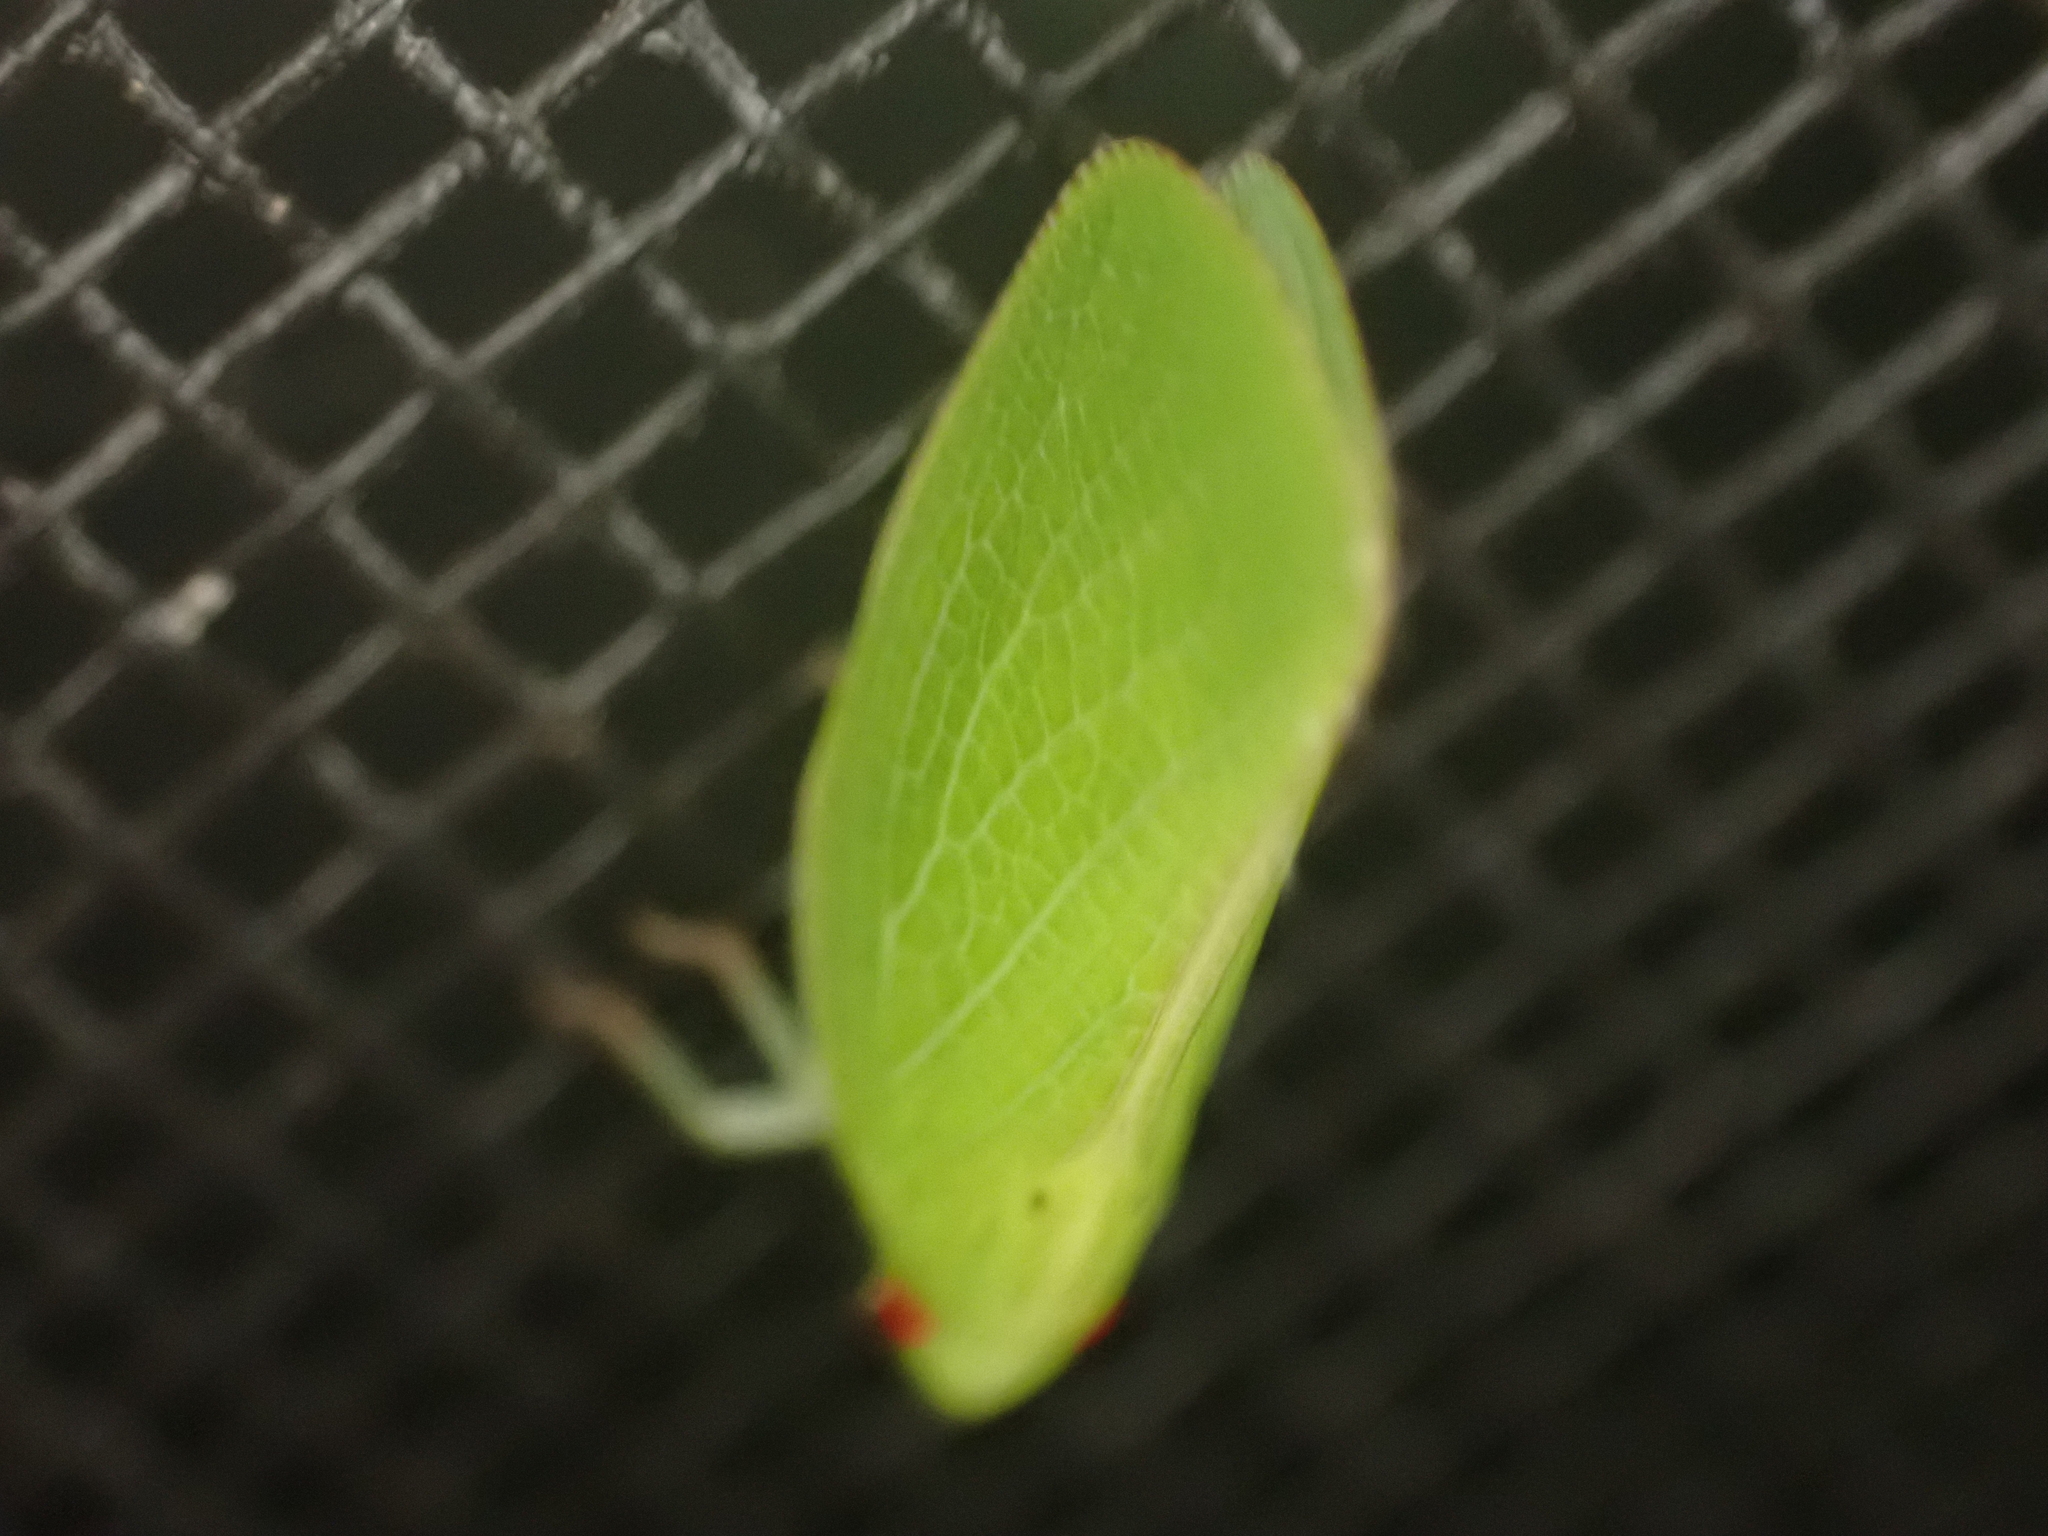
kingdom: Animalia
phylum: Arthropoda
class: Insecta
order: Hemiptera
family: Acanaloniidae
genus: Acanalonia
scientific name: Acanalonia conica
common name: Green cone-headed planthopper
